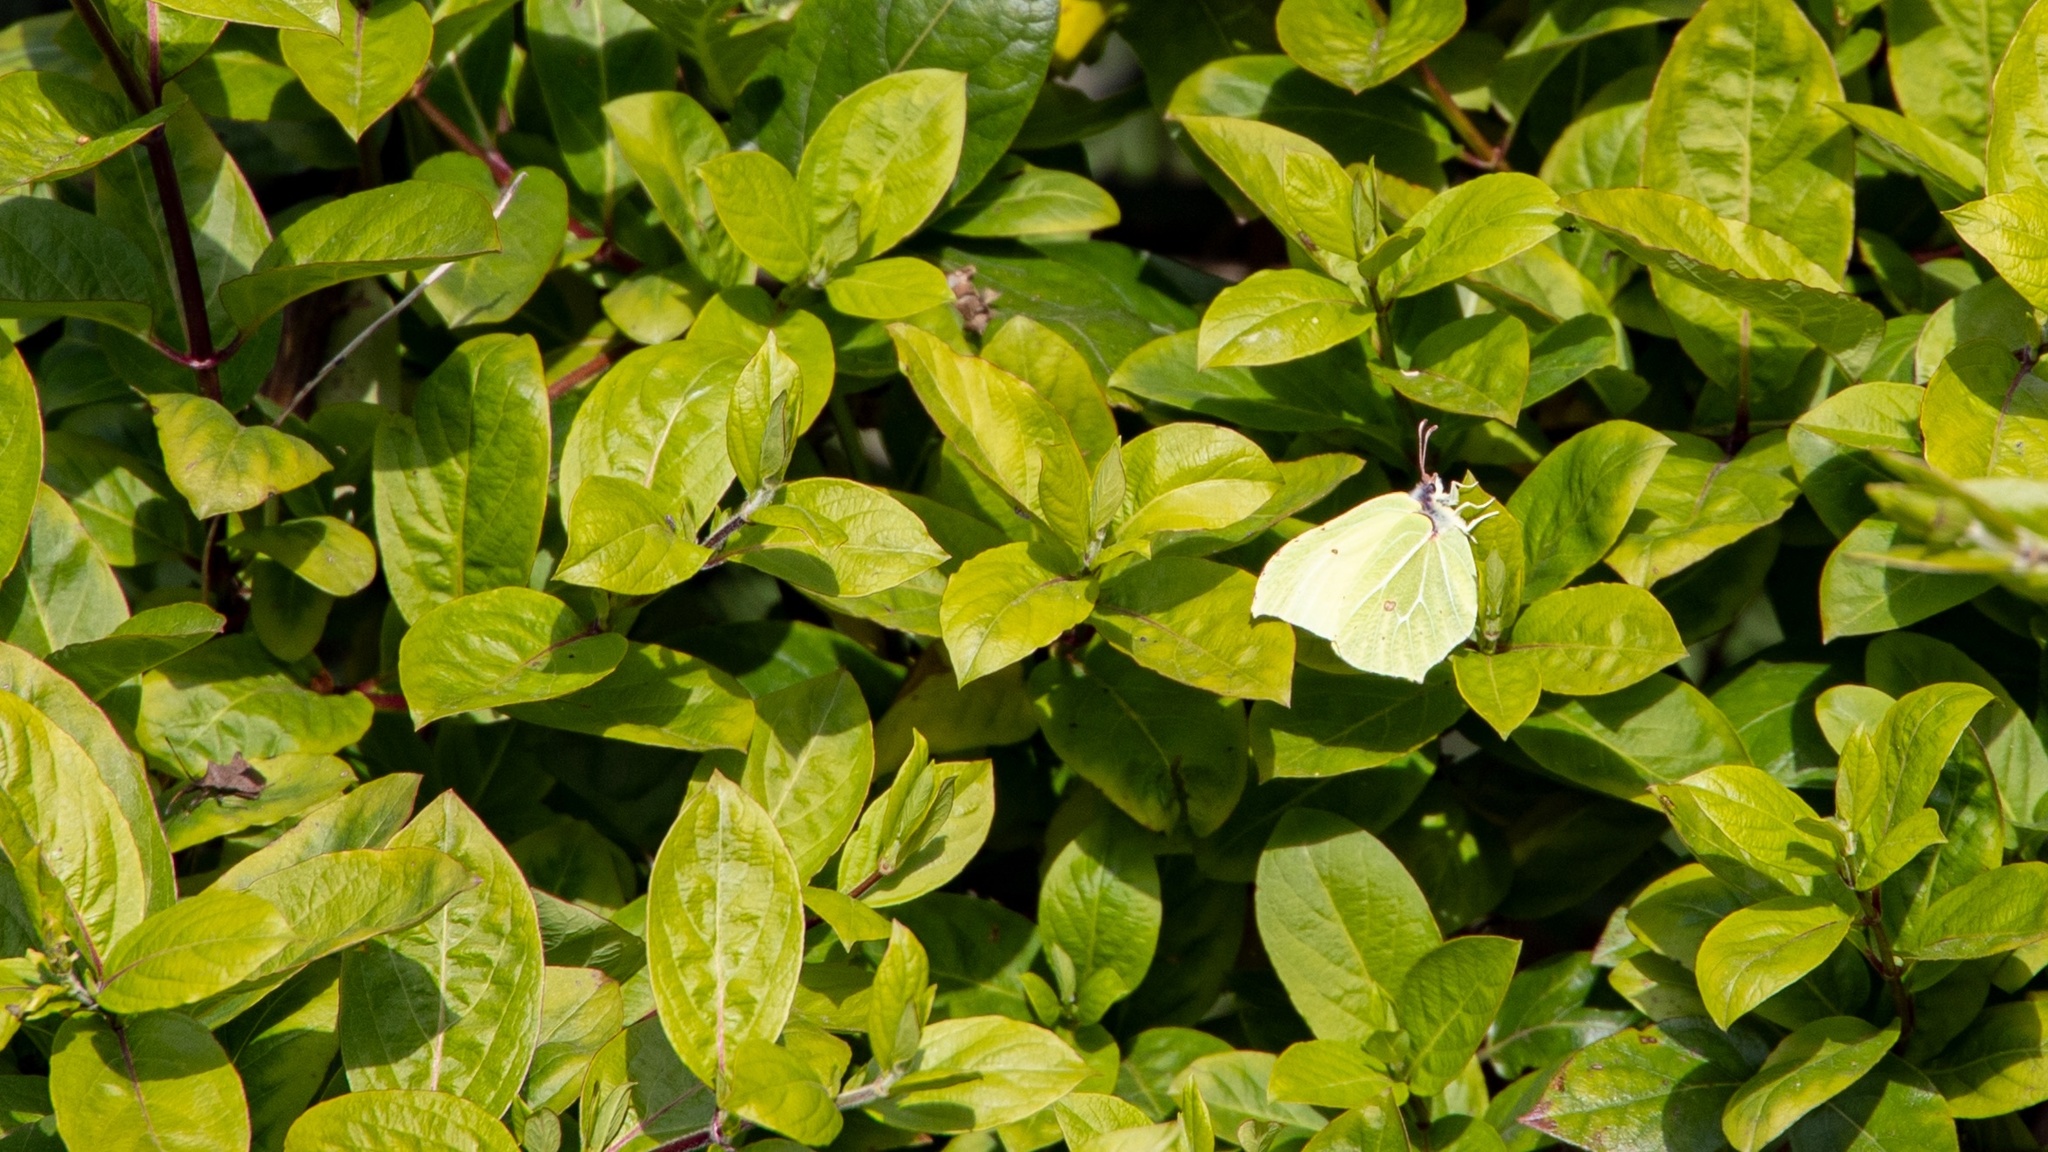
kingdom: Animalia
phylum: Arthropoda
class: Insecta
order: Lepidoptera
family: Pieridae
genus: Gonepteryx
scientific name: Gonepteryx rhamni
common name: Brimstone
